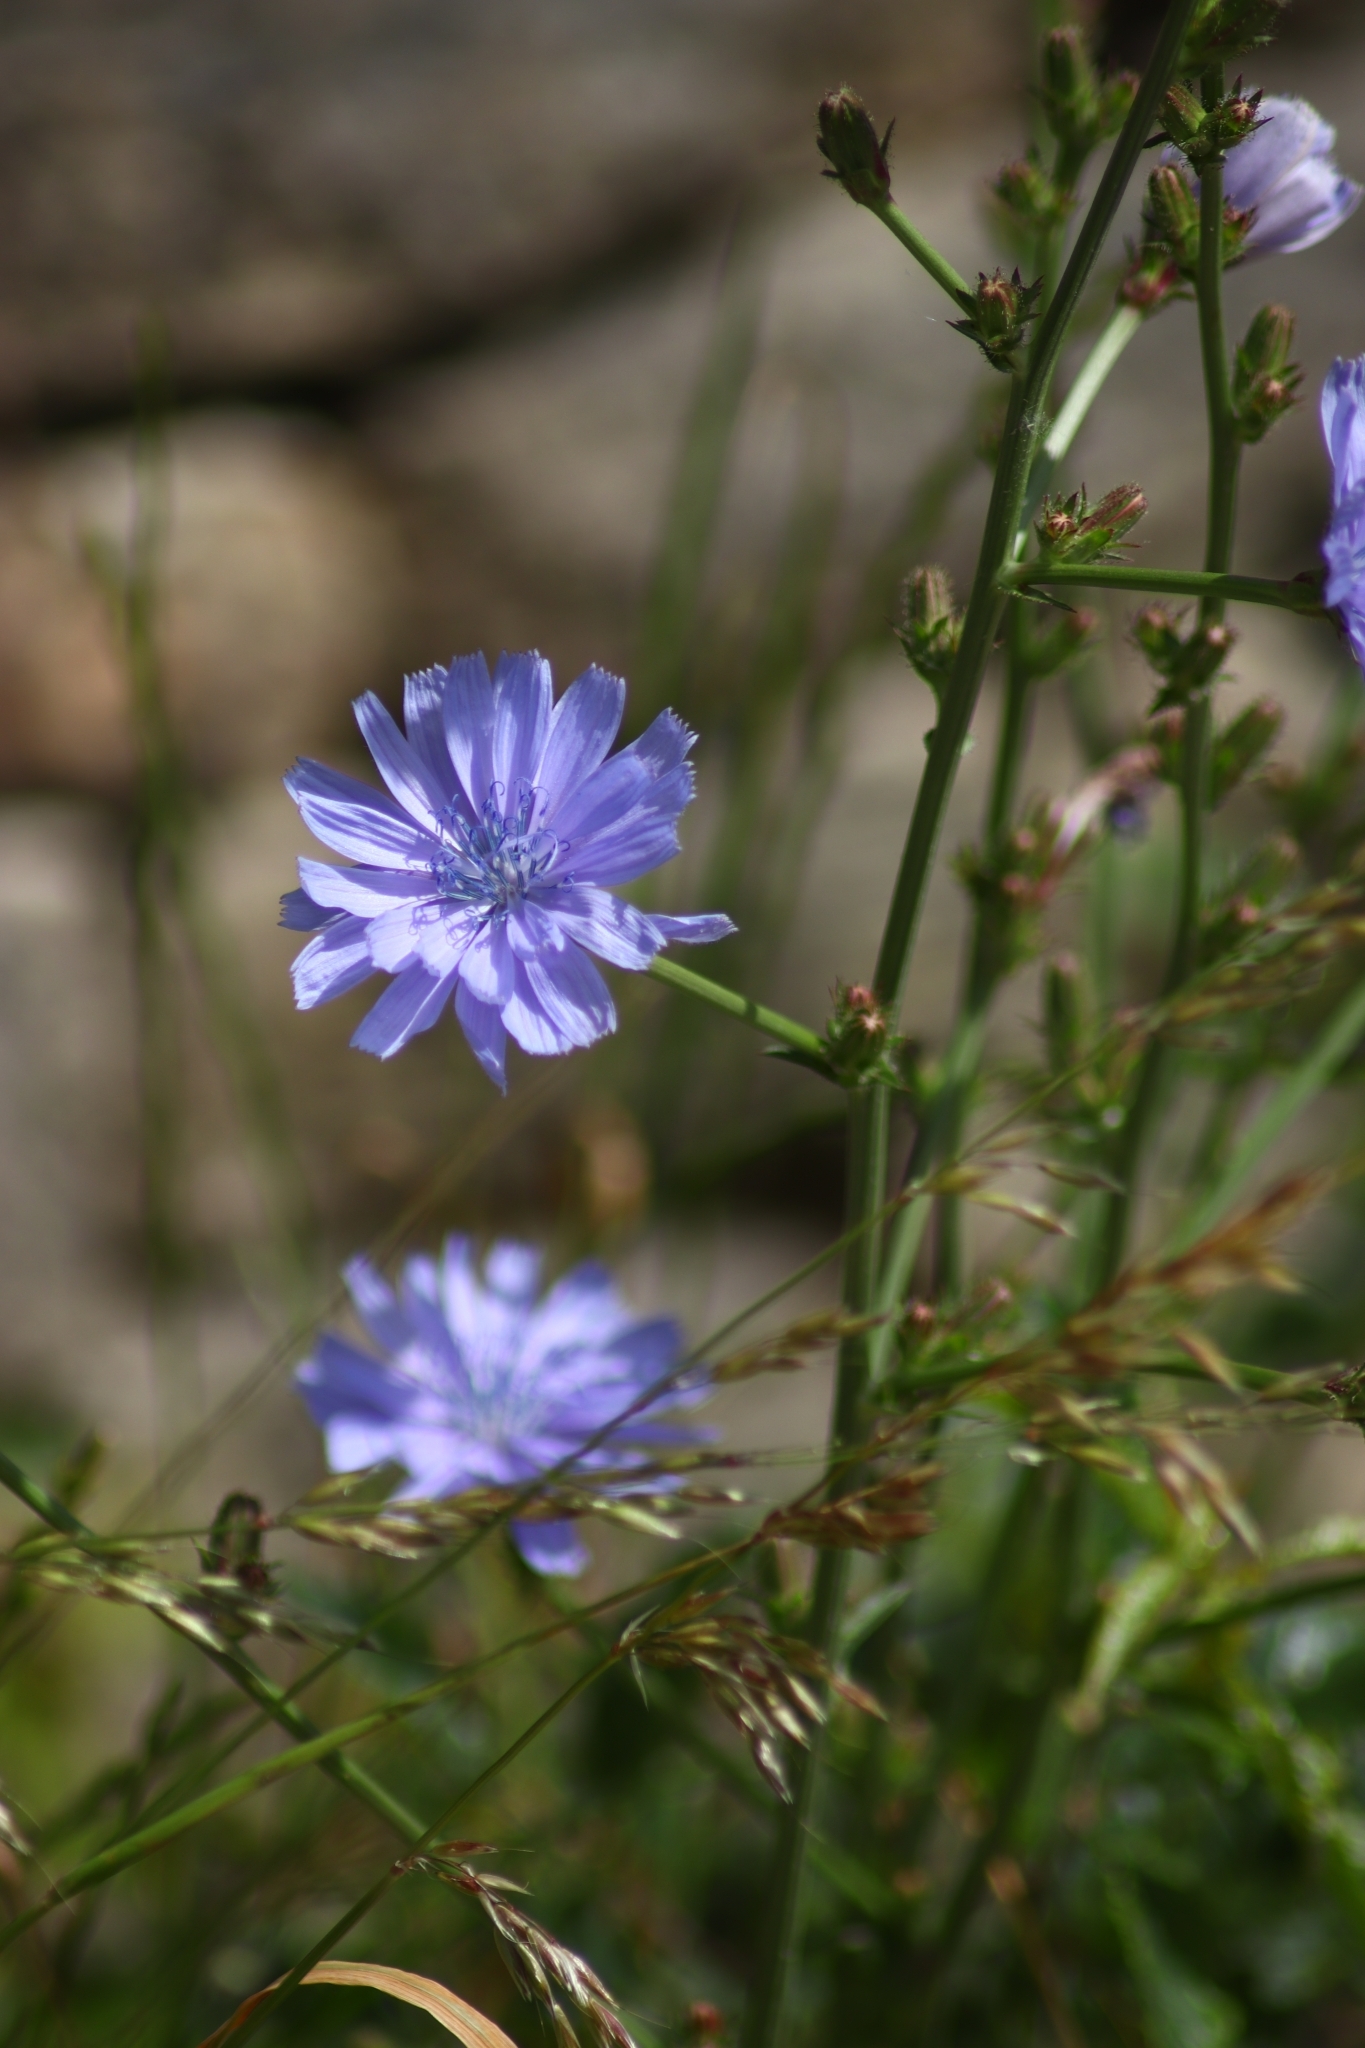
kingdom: Plantae
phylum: Tracheophyta
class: Magnoliopsida
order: Asterales
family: Asteraceae
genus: Cichorium
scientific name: Cichorium intybus
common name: Chicory
